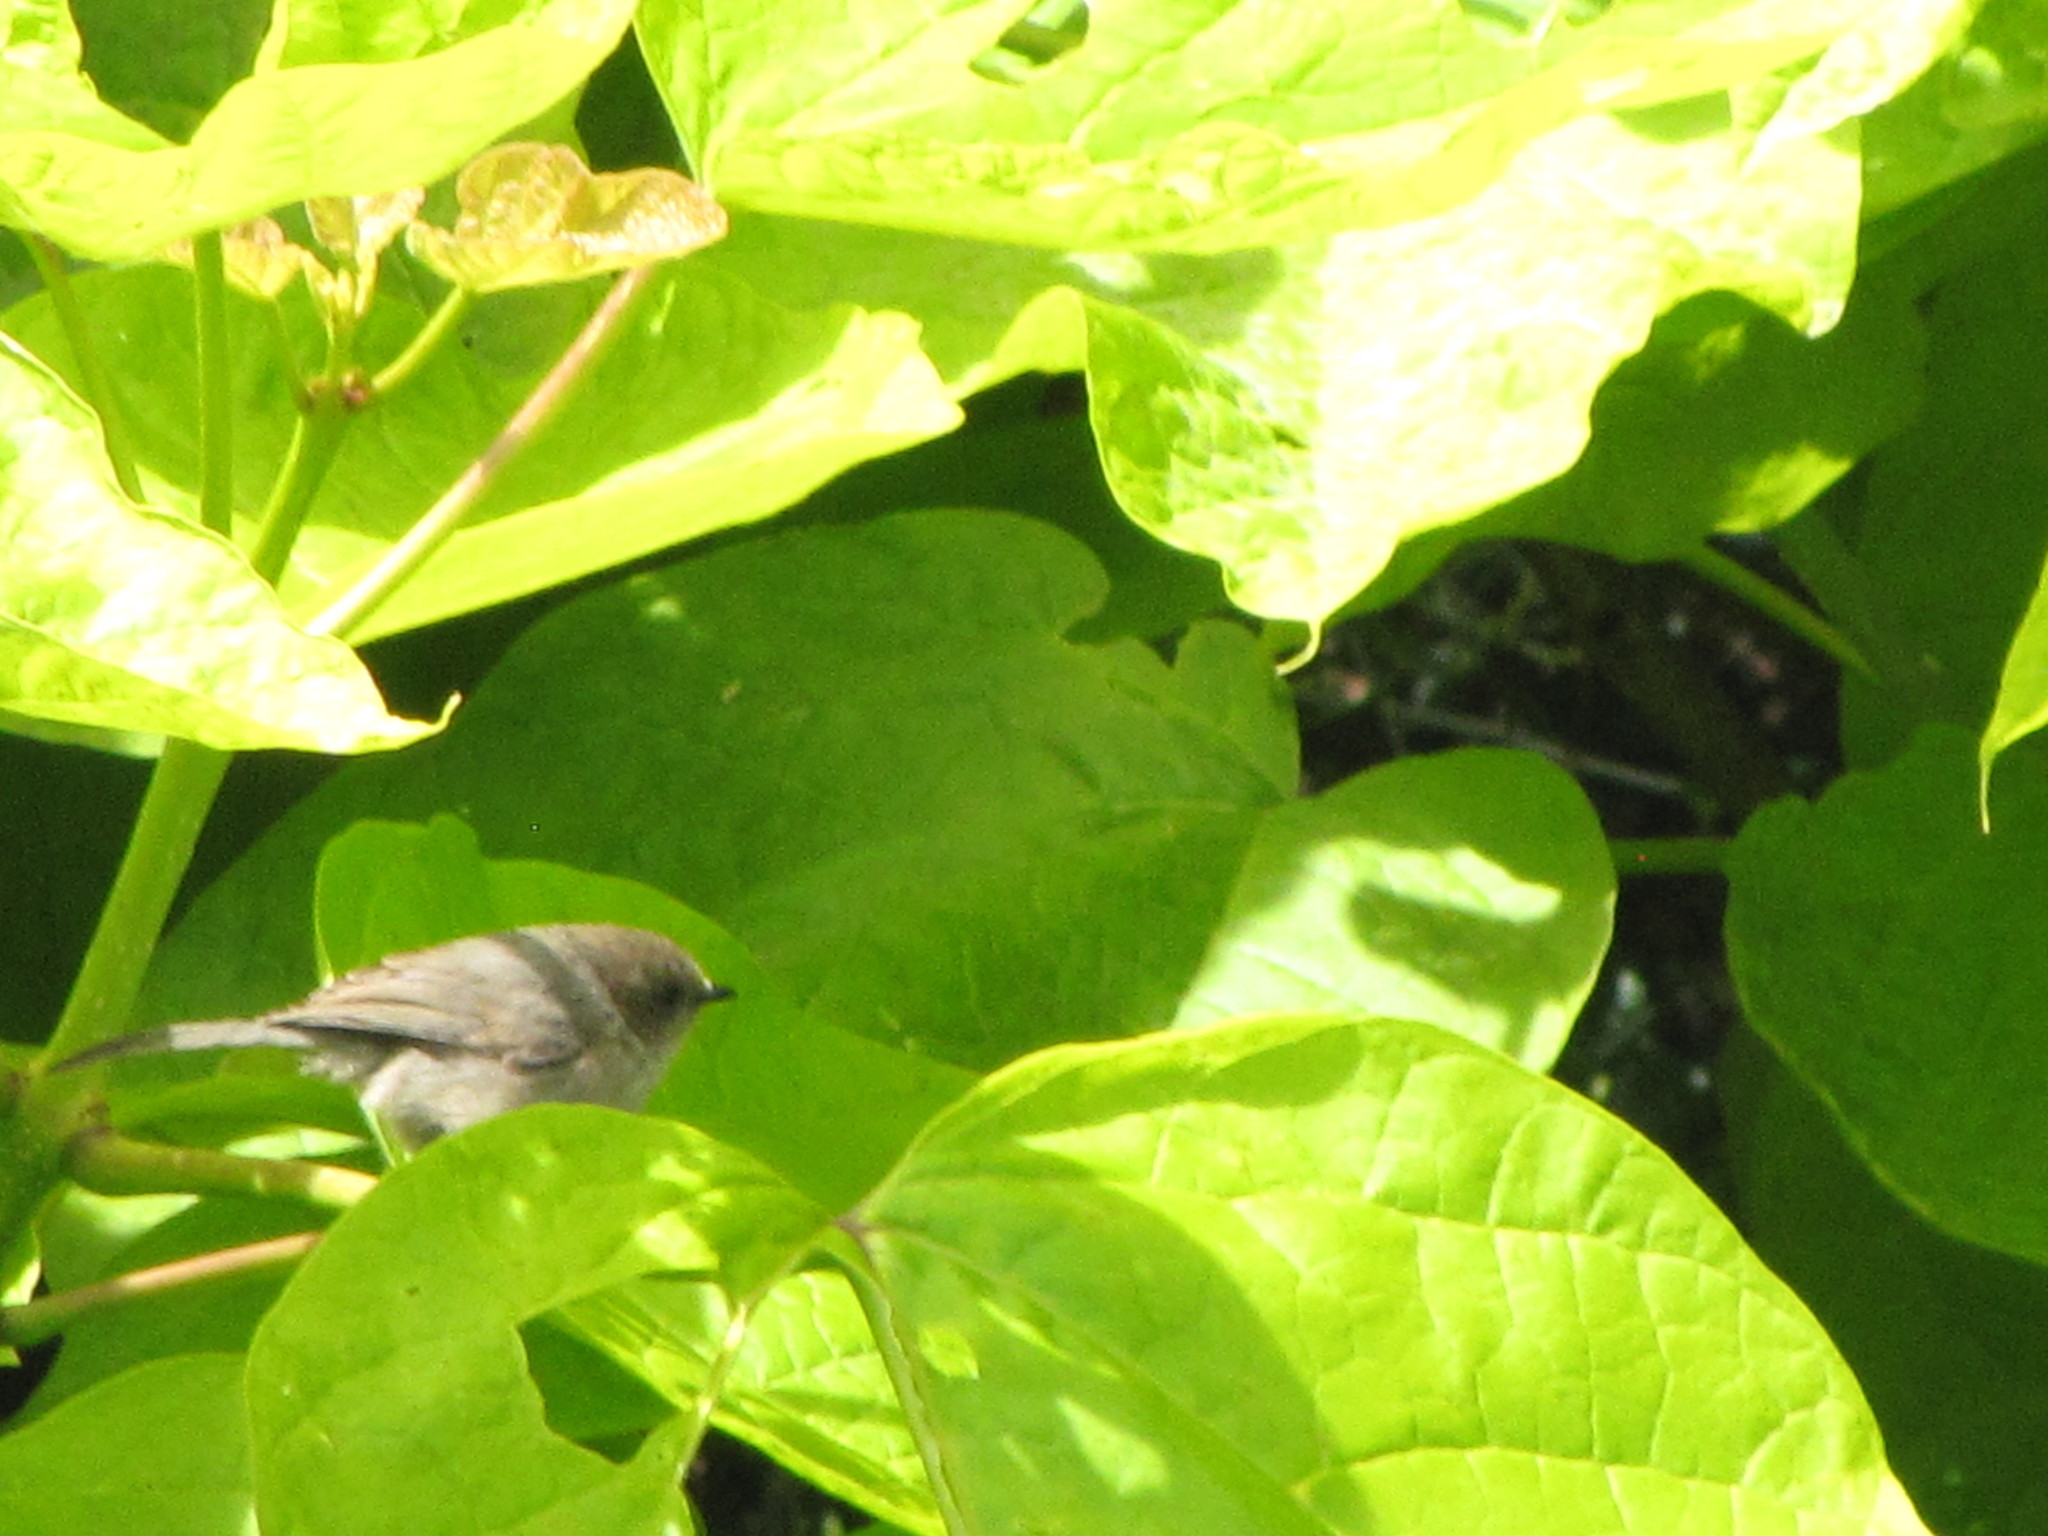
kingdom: Animalia
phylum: Chordata
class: Aves
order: Passeriformes
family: Aegithalidae
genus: Psaltriparus
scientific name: Psaltriparus minimus
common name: American bushtit
